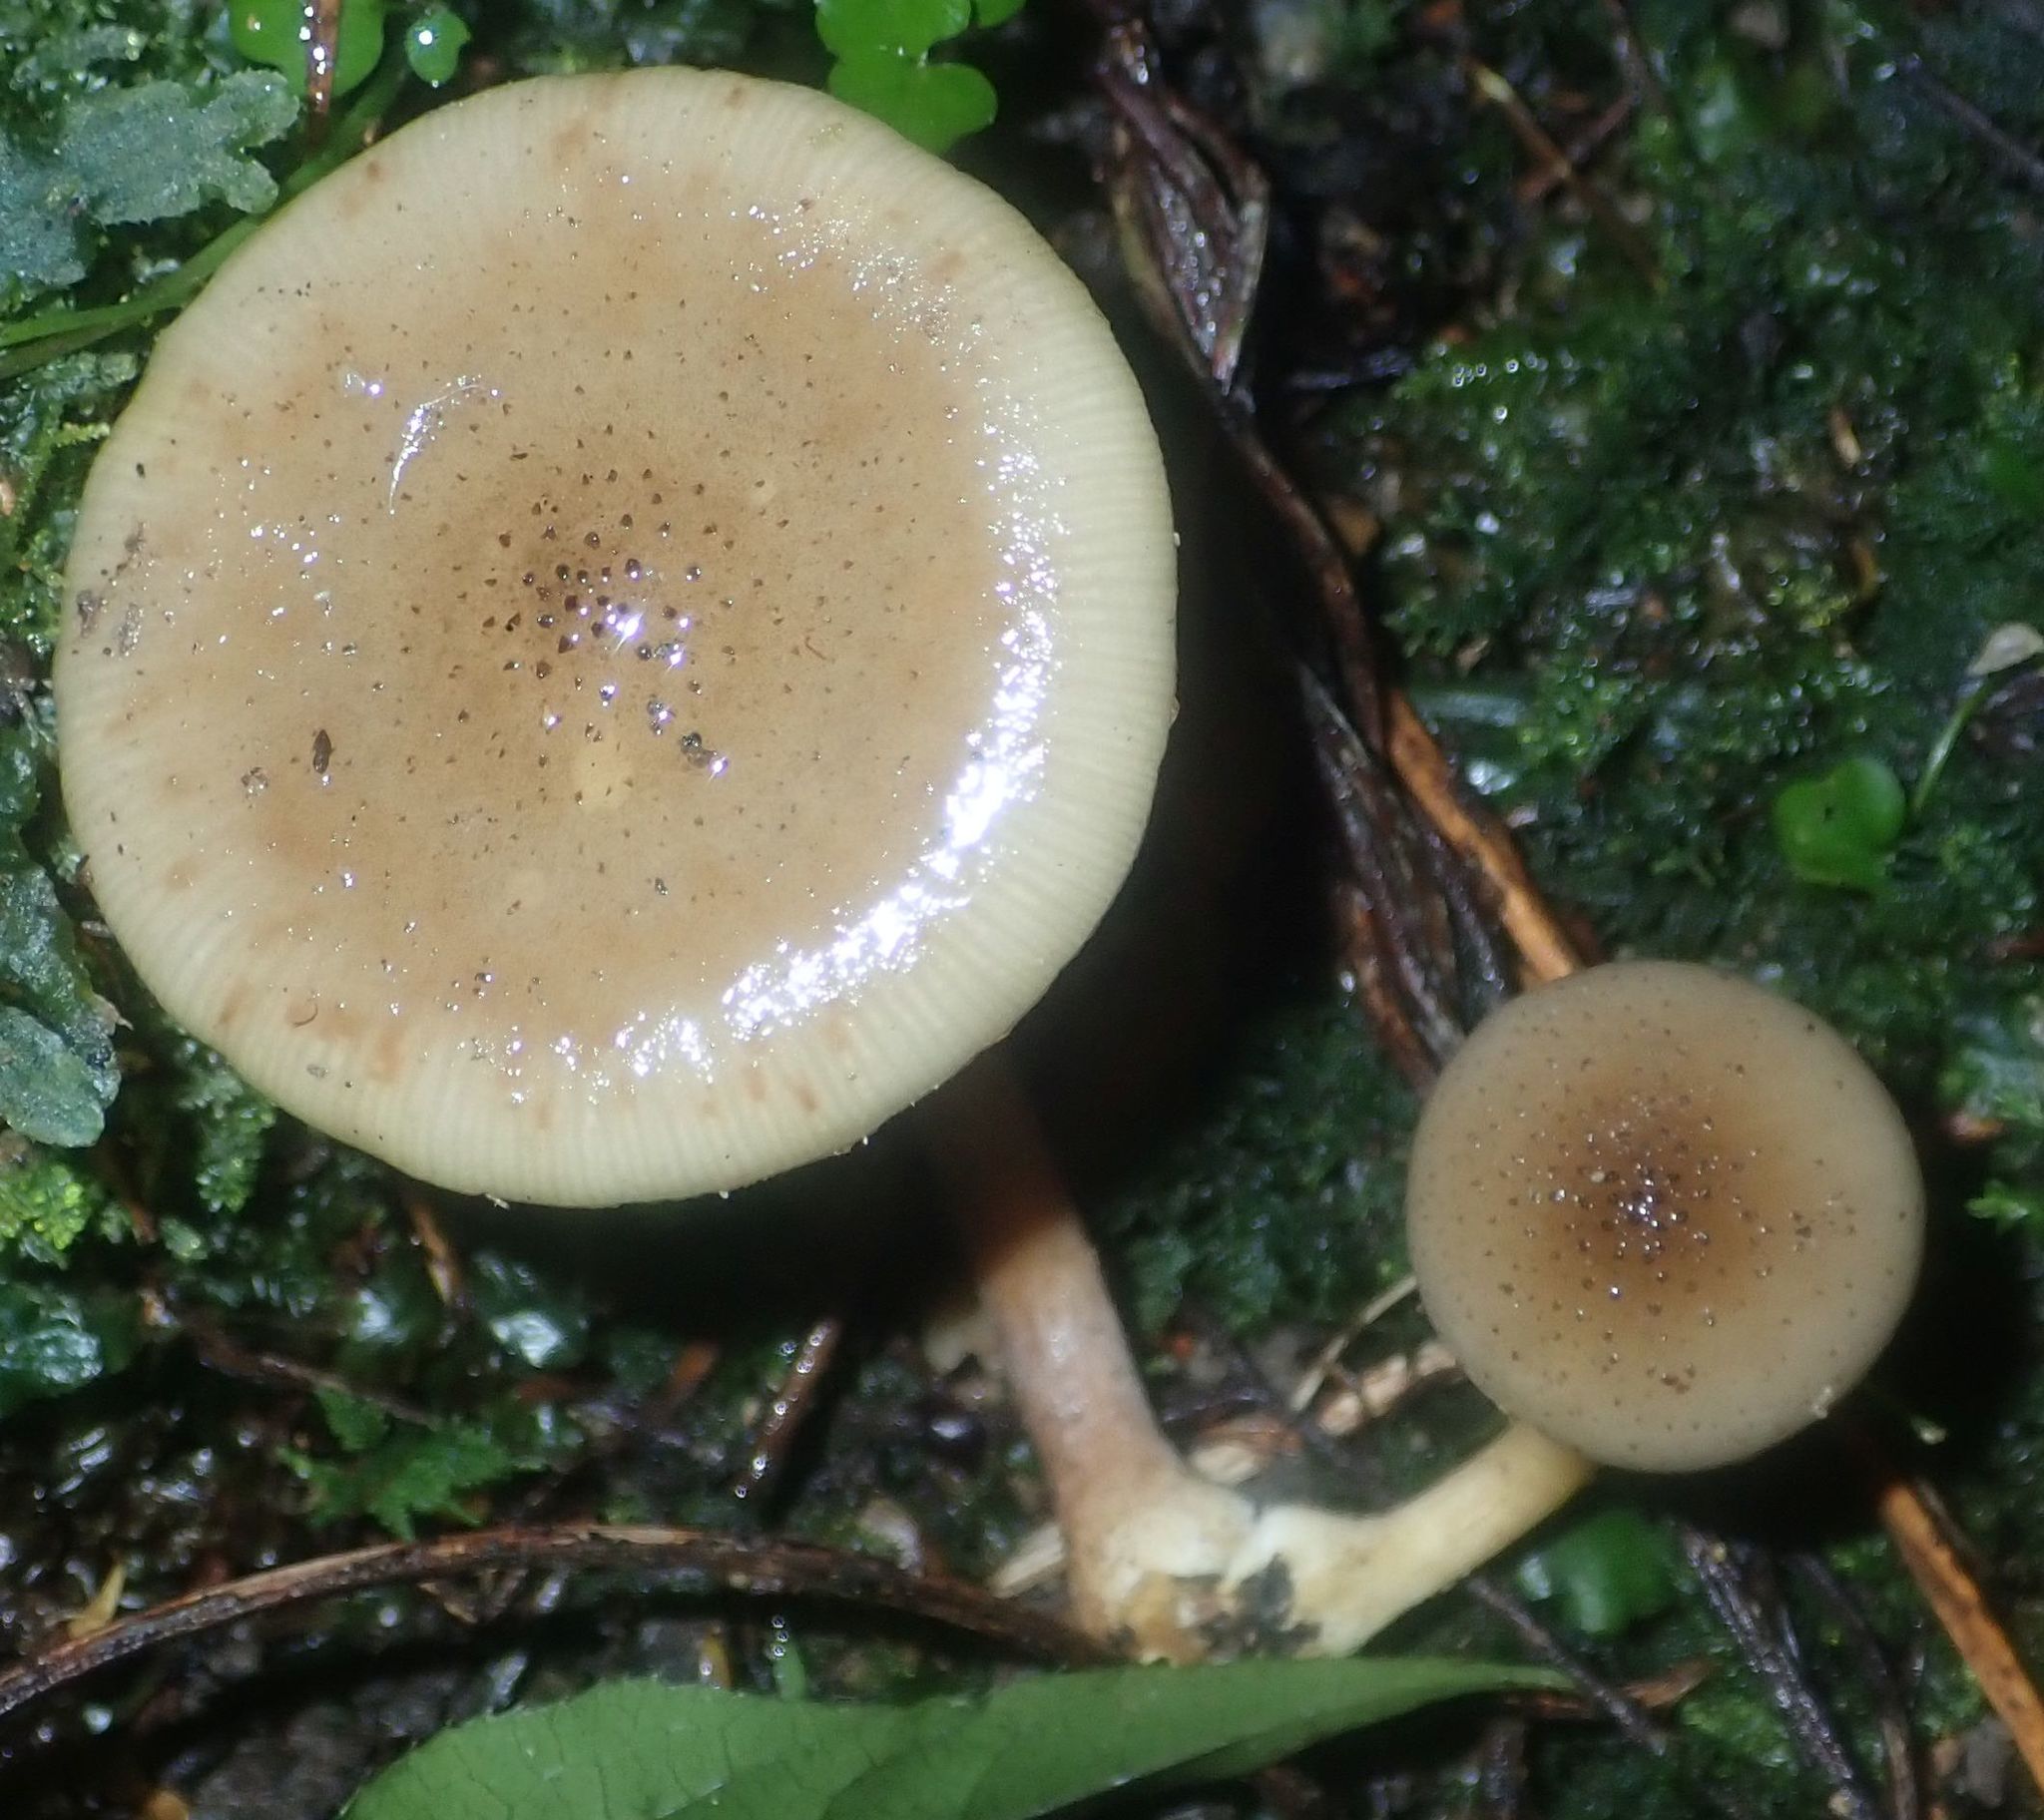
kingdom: Fungi
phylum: Basidiomycota
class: Agaricomycetes
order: Agaricales
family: Physalacriaceae
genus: Armillaria
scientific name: Armillaria novae-zelandiae
